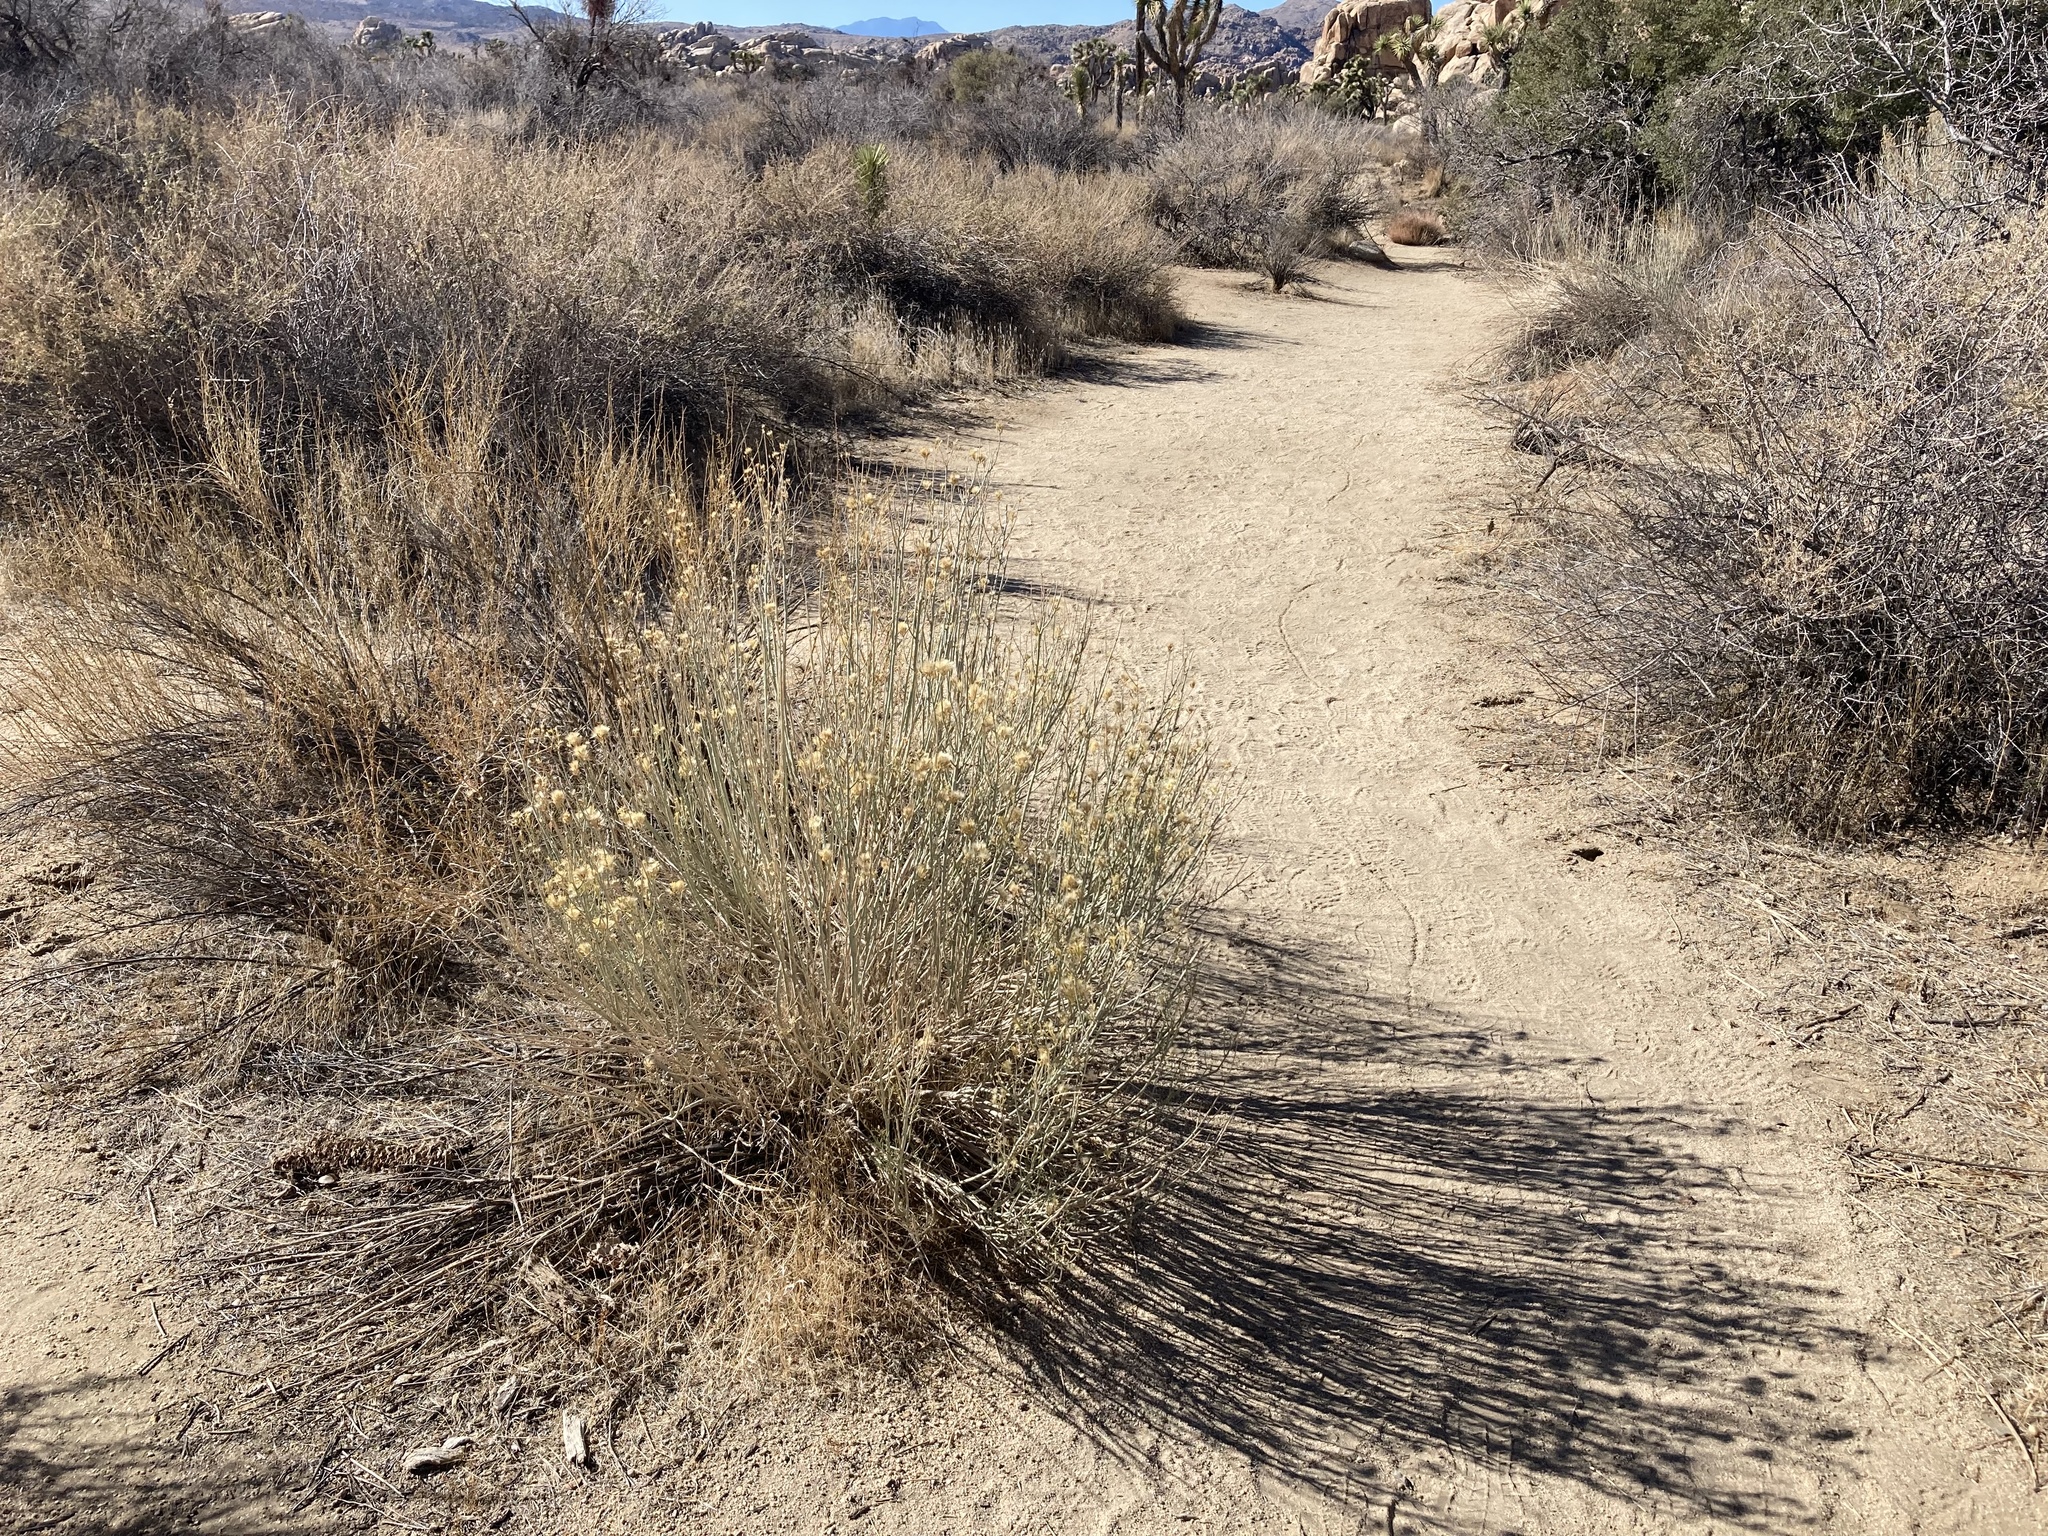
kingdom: Plantae
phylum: Tracheophyta
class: Magnoliopsida
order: Asterales
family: Asteraceae
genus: Ericameria
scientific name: Ericameria nauseosa
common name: Rubber rabbitbrush
